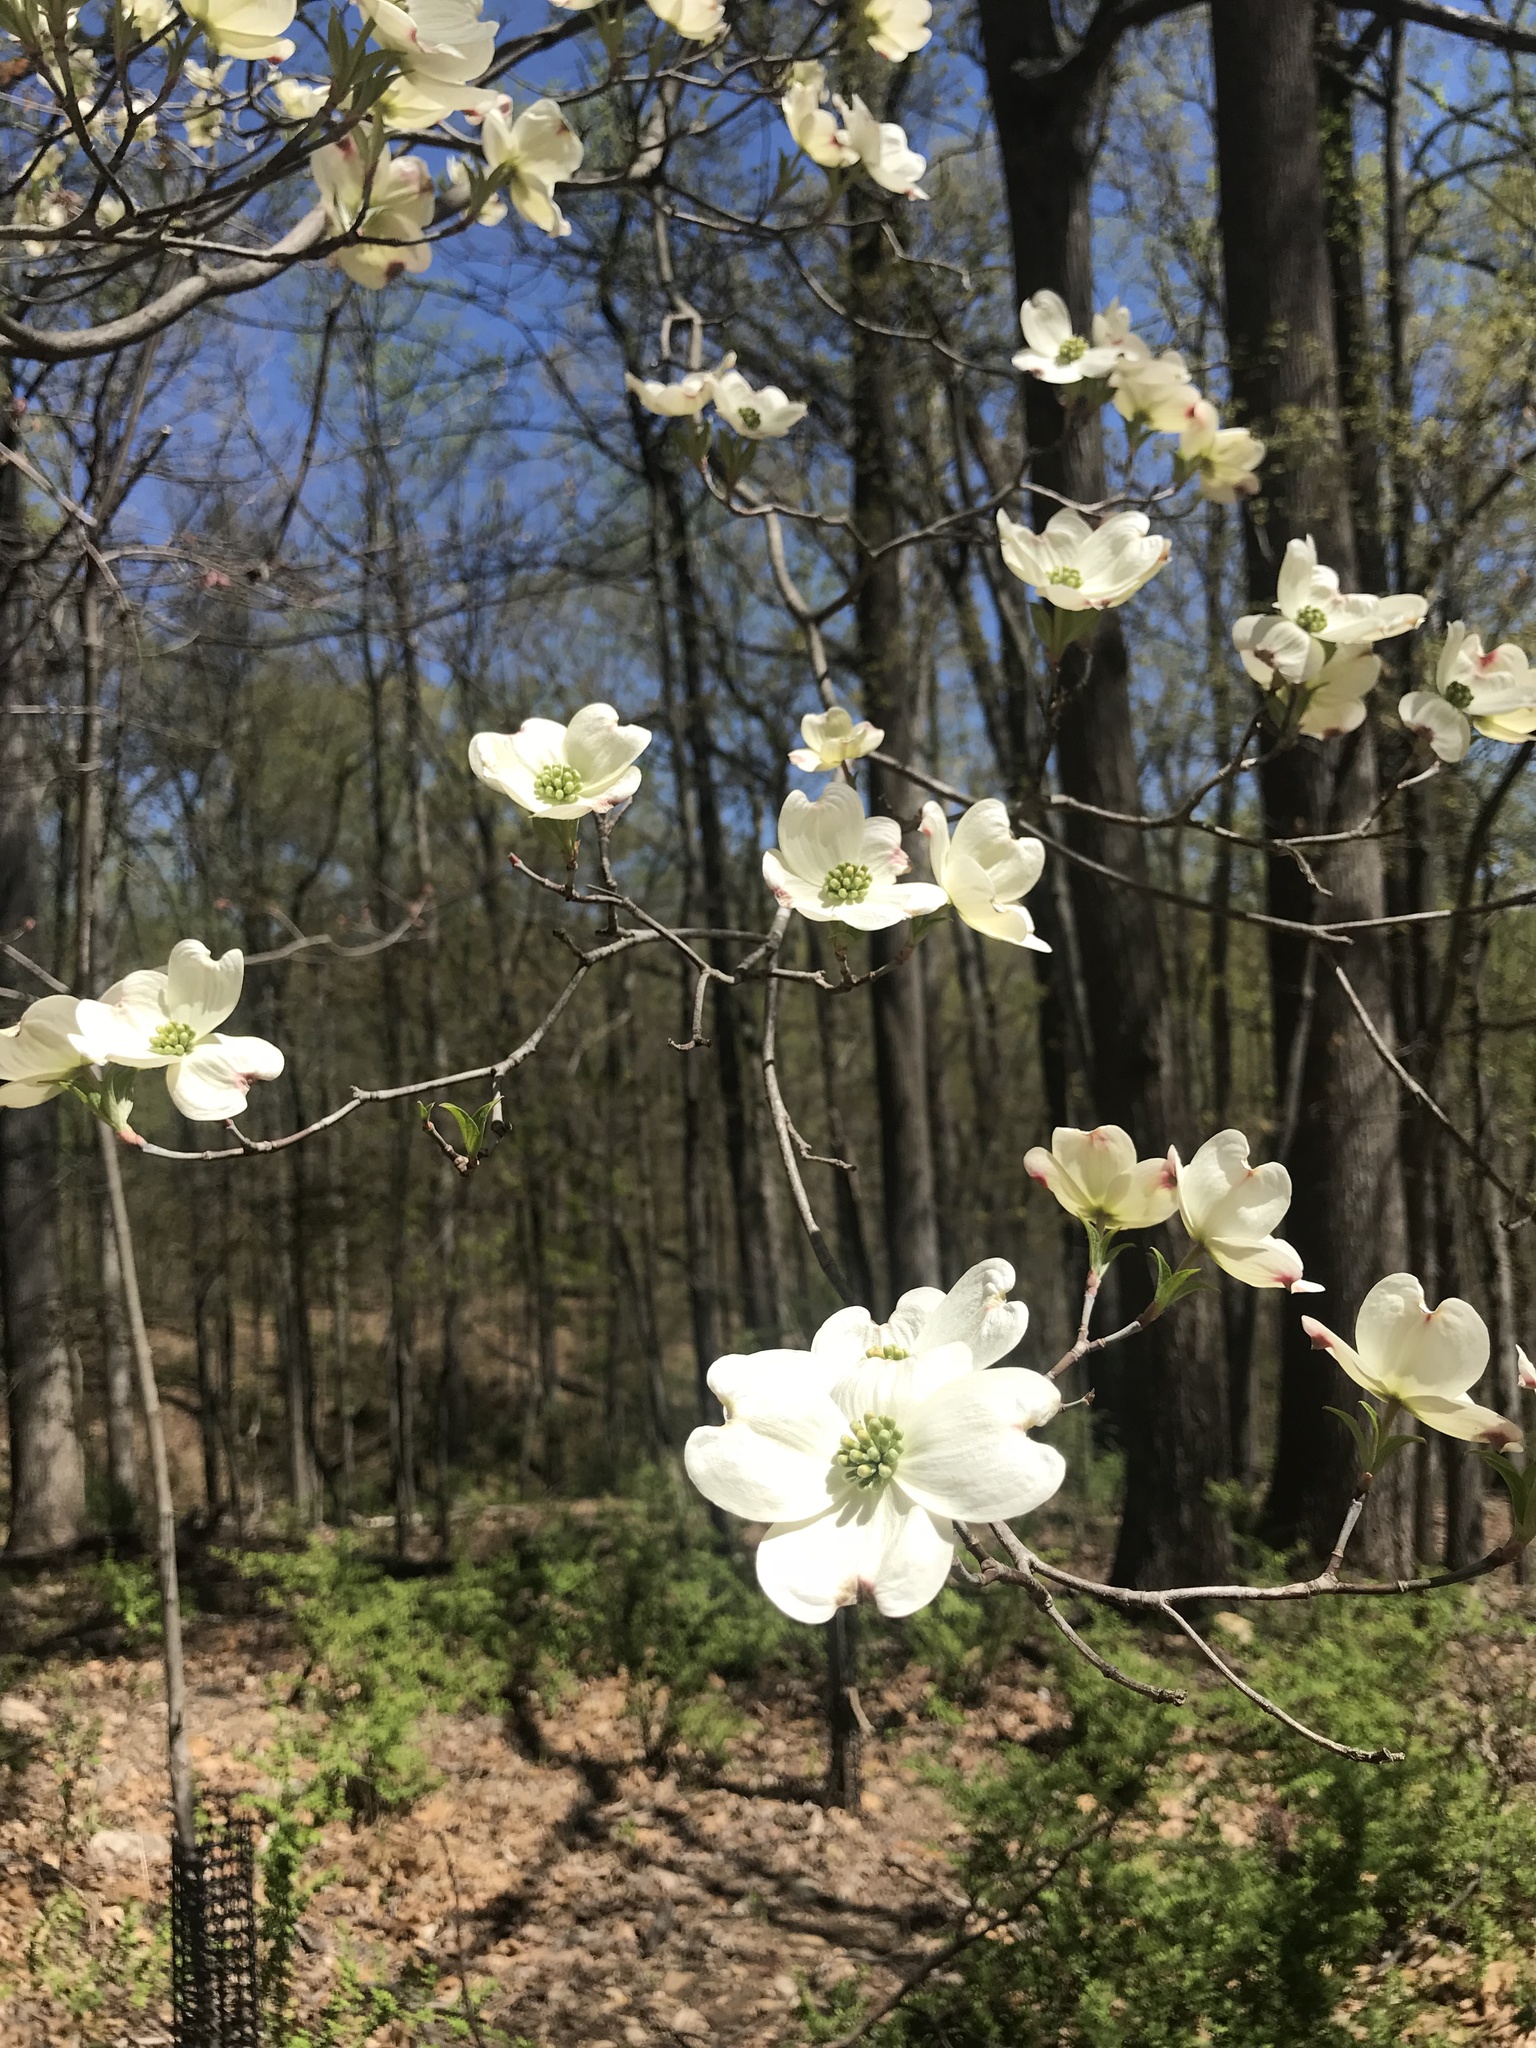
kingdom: Plantae
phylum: Tracheophyta
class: Magnoliopsida
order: Cornales
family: Cornaceae
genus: Cornus
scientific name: Cornus florida
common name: Flowering dogwood
